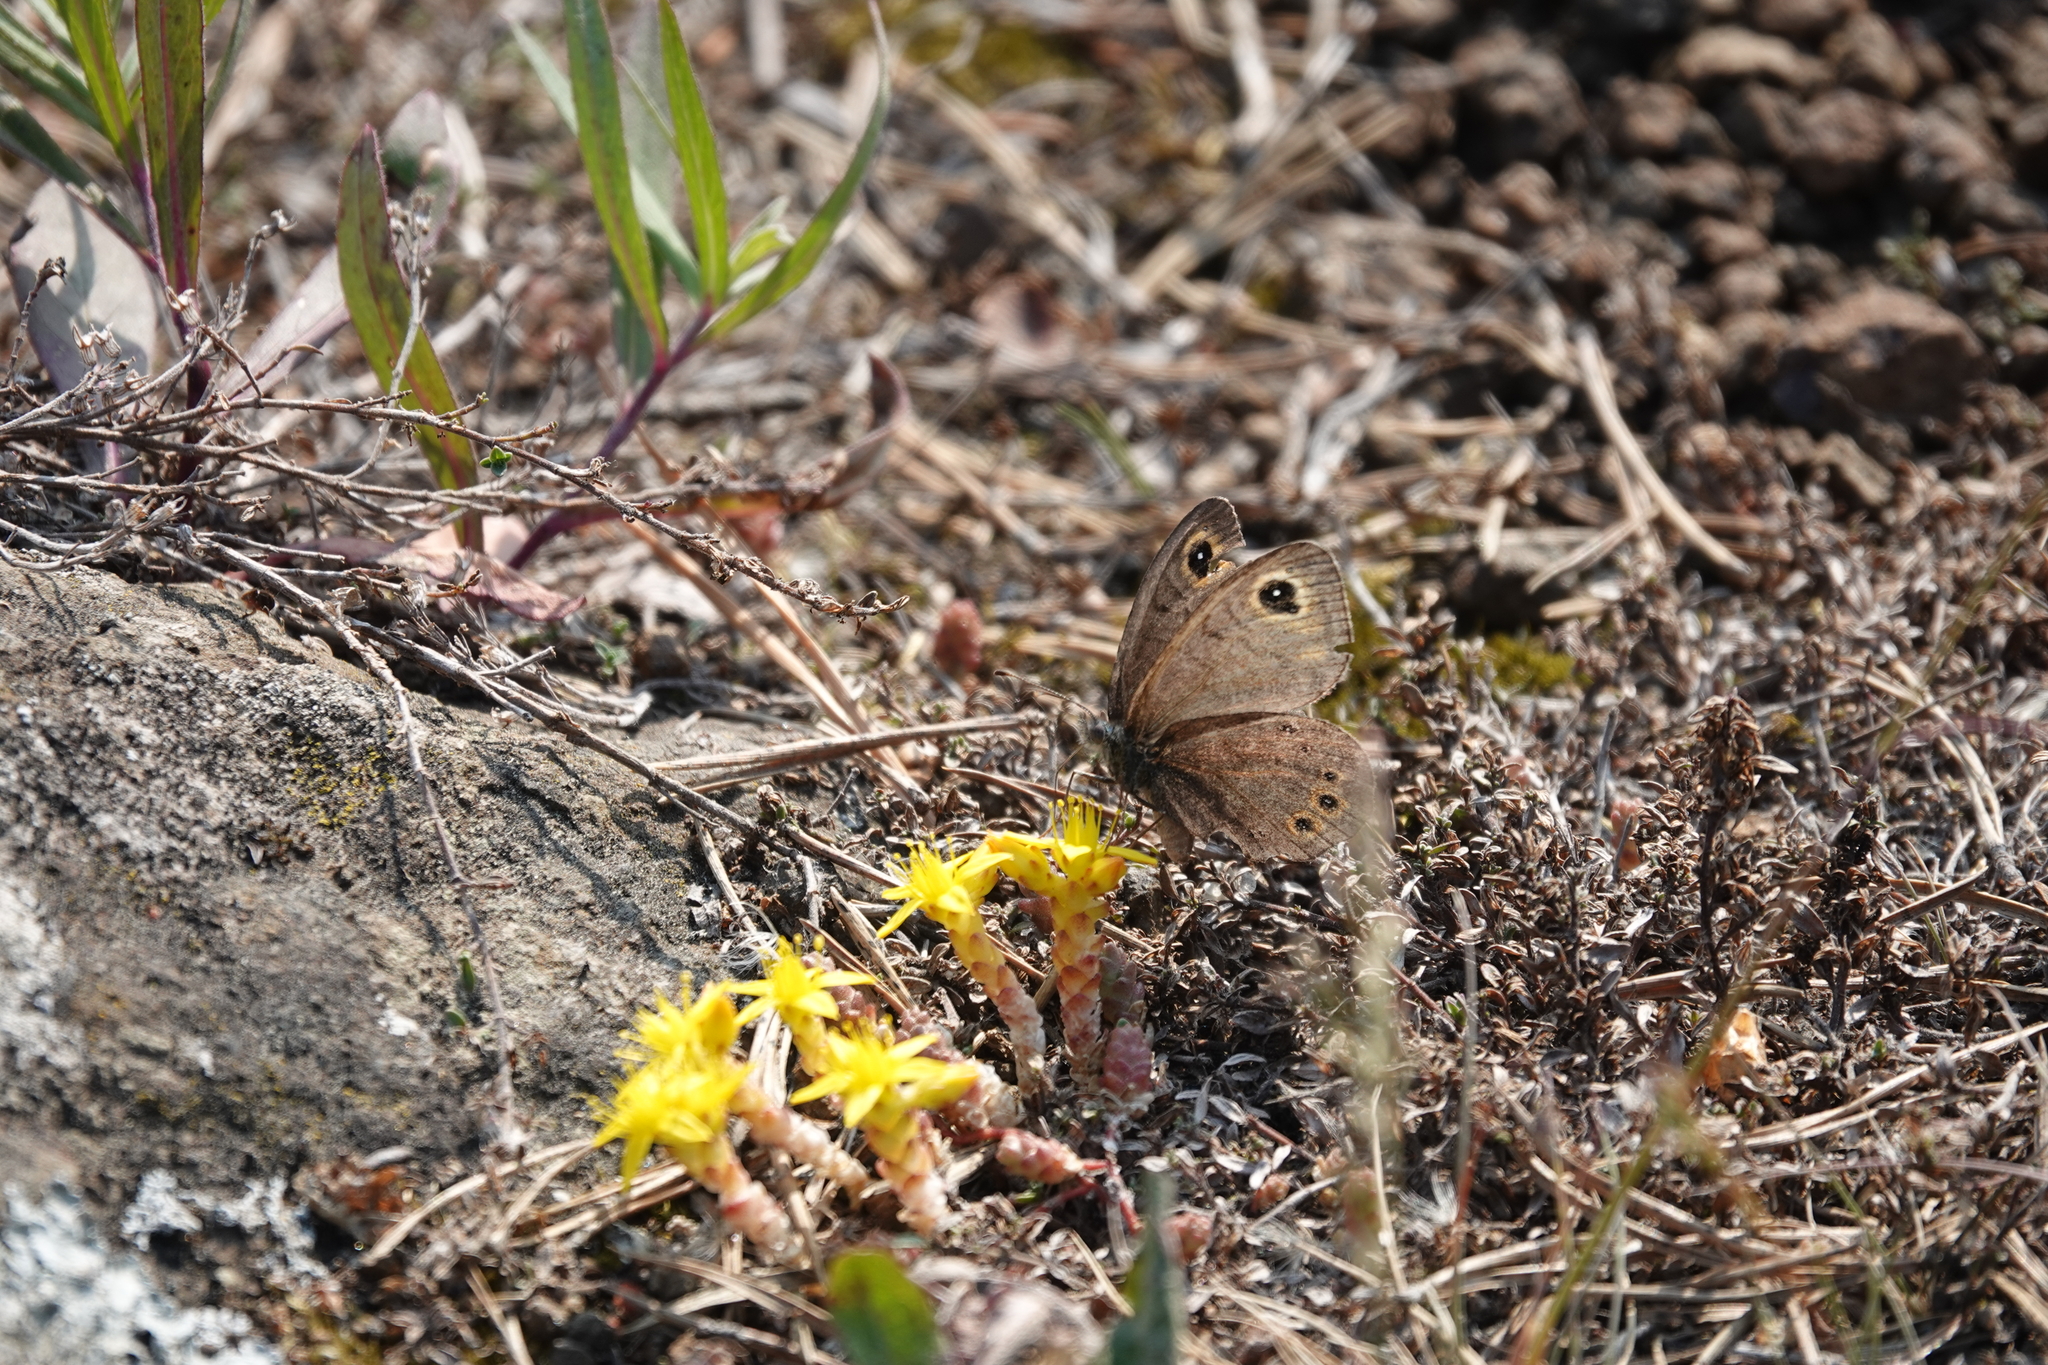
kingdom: Animalia
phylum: Arthropoda
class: Insecta
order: Lepidoptera
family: Nymphalidae
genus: Pararge
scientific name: Pararge petropolitana
